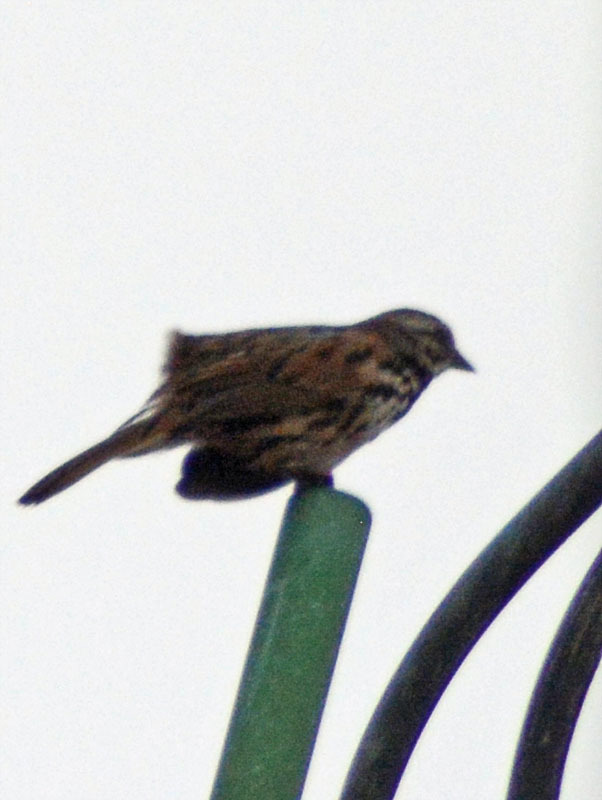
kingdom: Animalia
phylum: Chordata
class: Aves
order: Passeriformes
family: Passerellidae
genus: Melospiza
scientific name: Melospiza melodia
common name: Song sparrow
